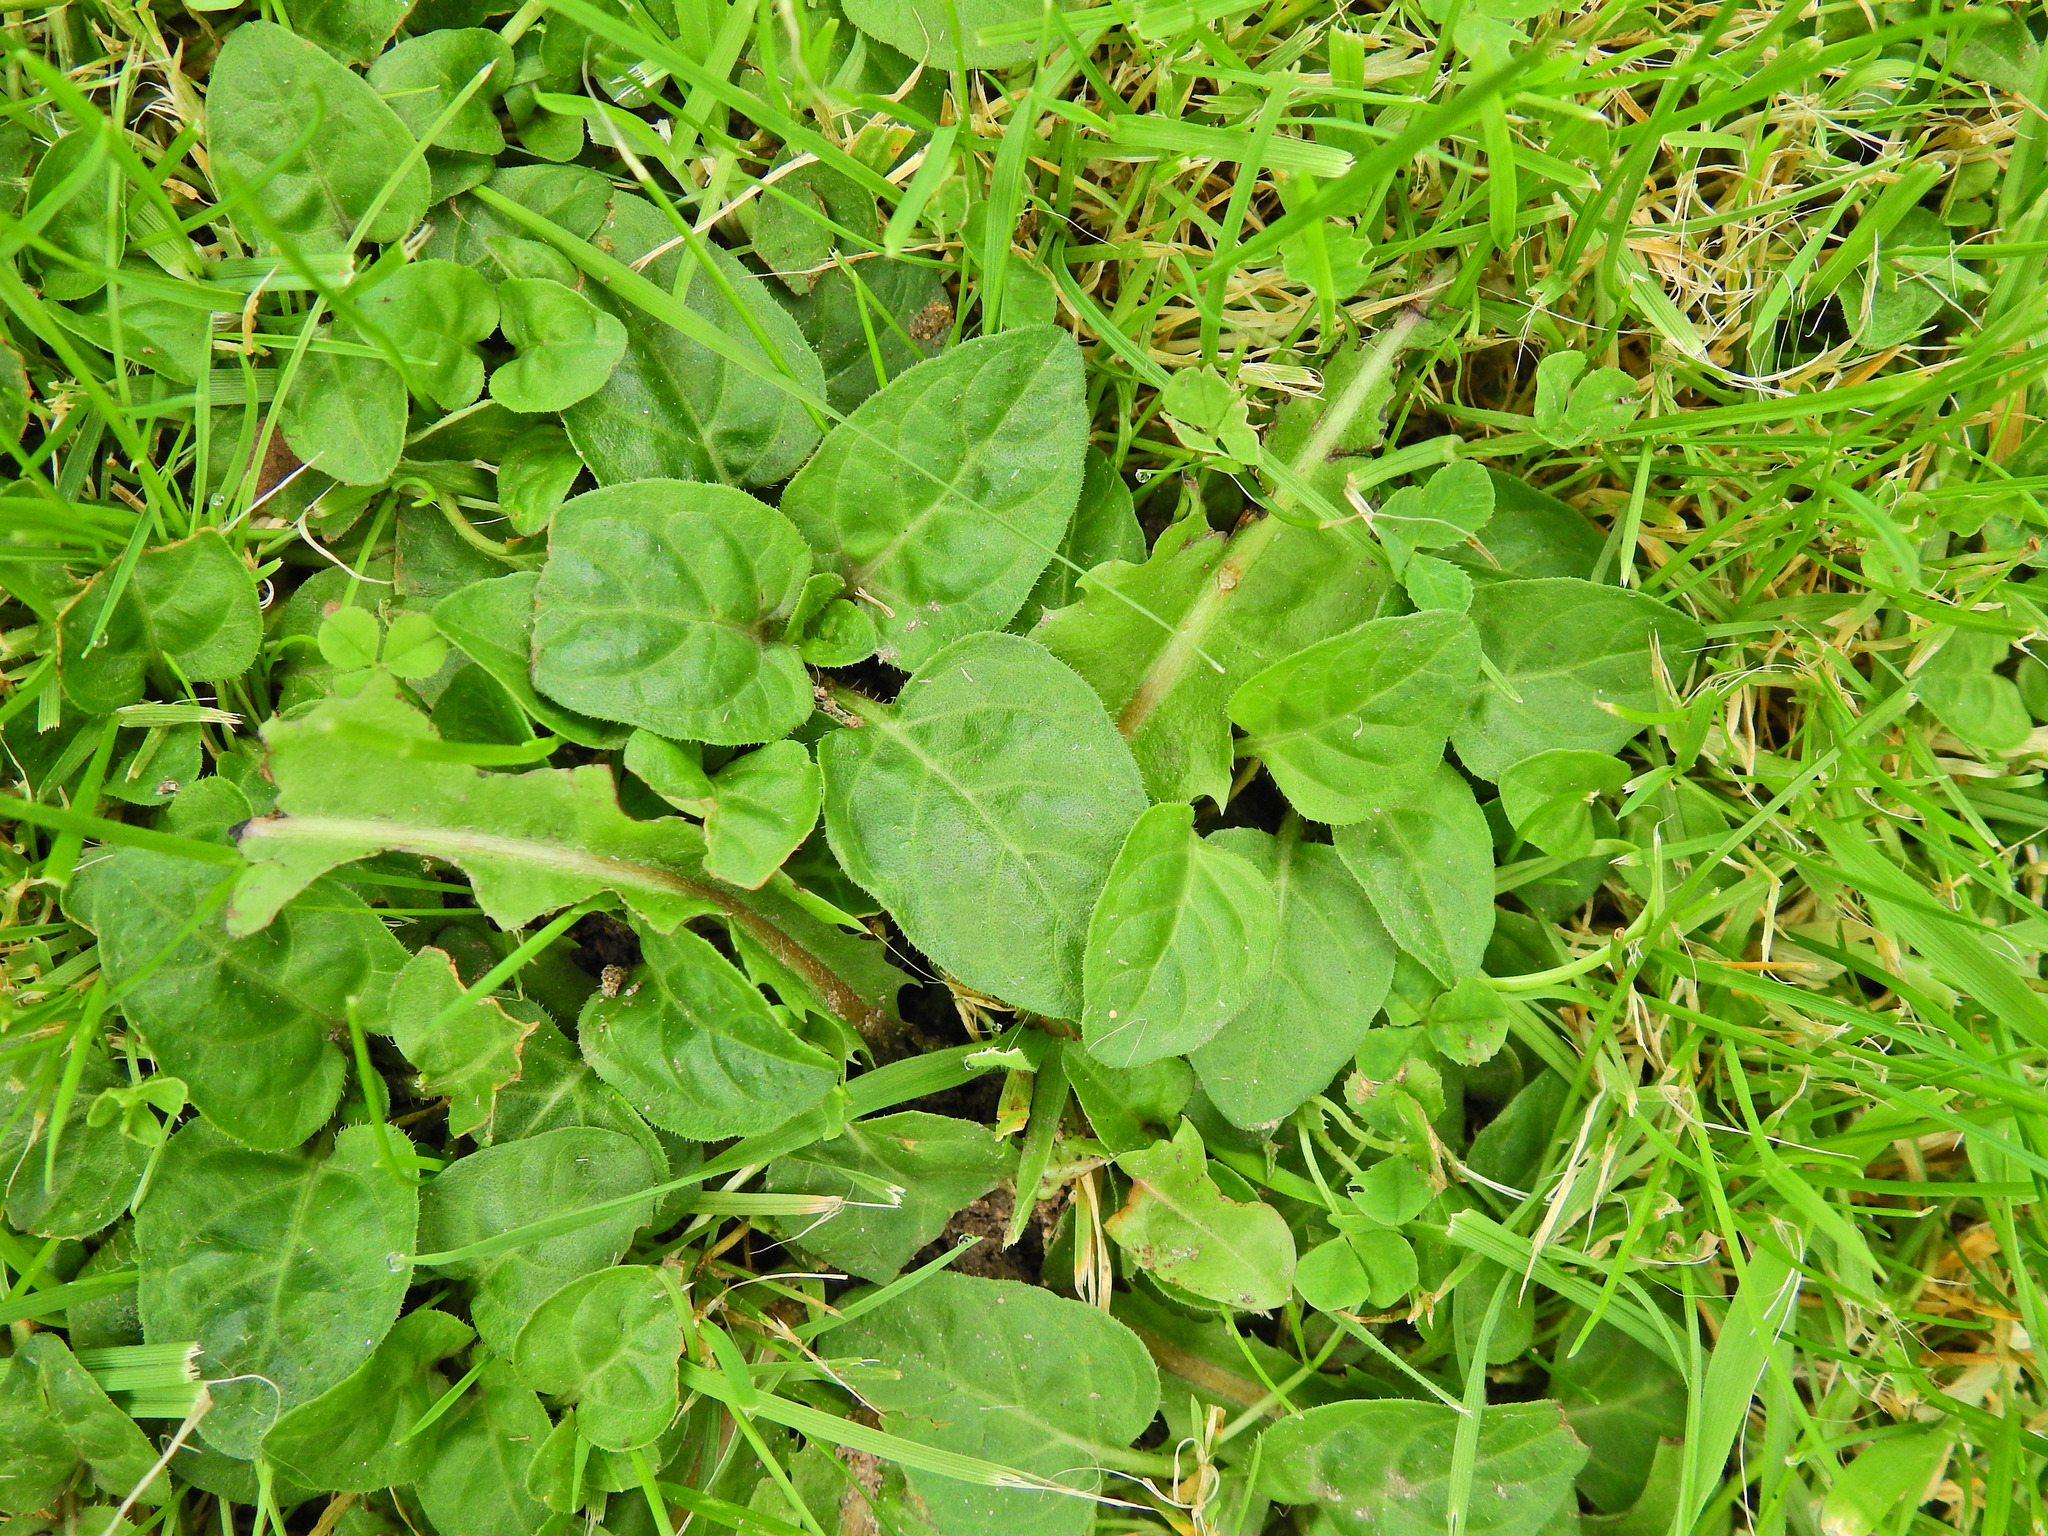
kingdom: Plantae
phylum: Tracheophyta
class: Magnoliopsida
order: Lamiales
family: Lamiaceae
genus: Prunella
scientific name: Prunella vulgaris
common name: Heal-all
